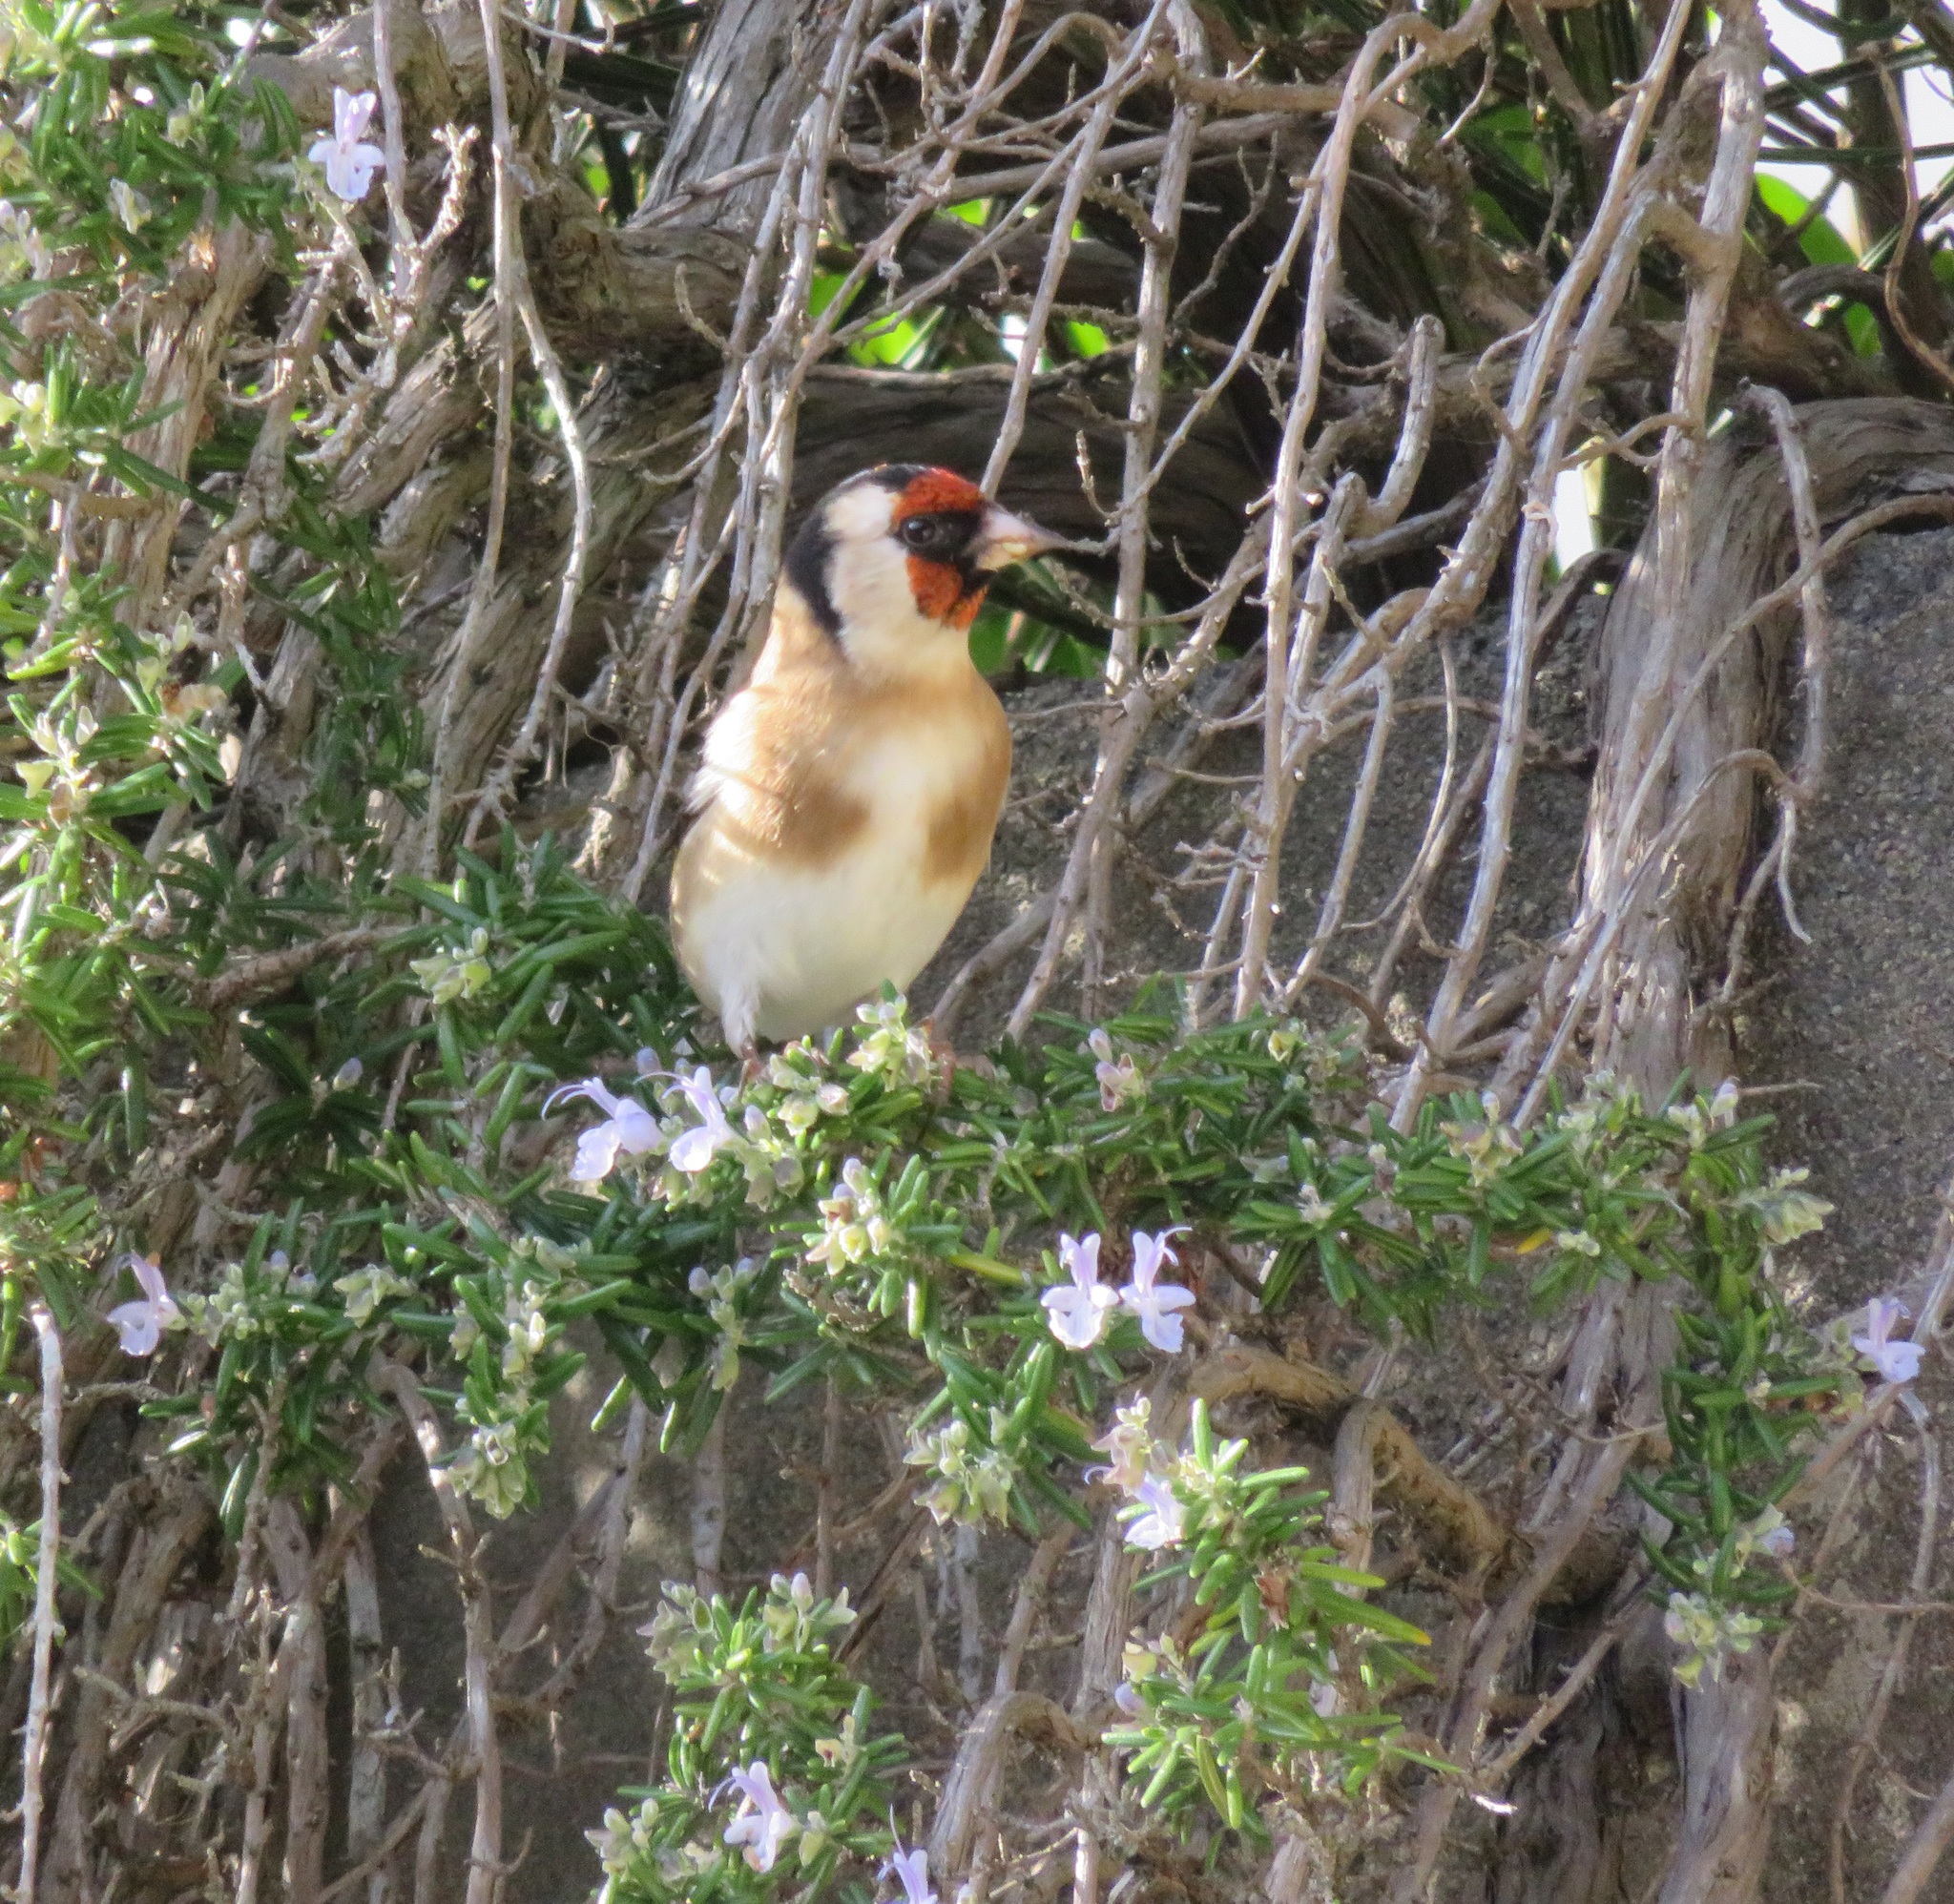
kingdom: Animalia
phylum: Chordata
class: Aves
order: Passeriformes
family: Fringillidae
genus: Carduelis
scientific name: Carduelis carduelis
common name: European goldfinch
